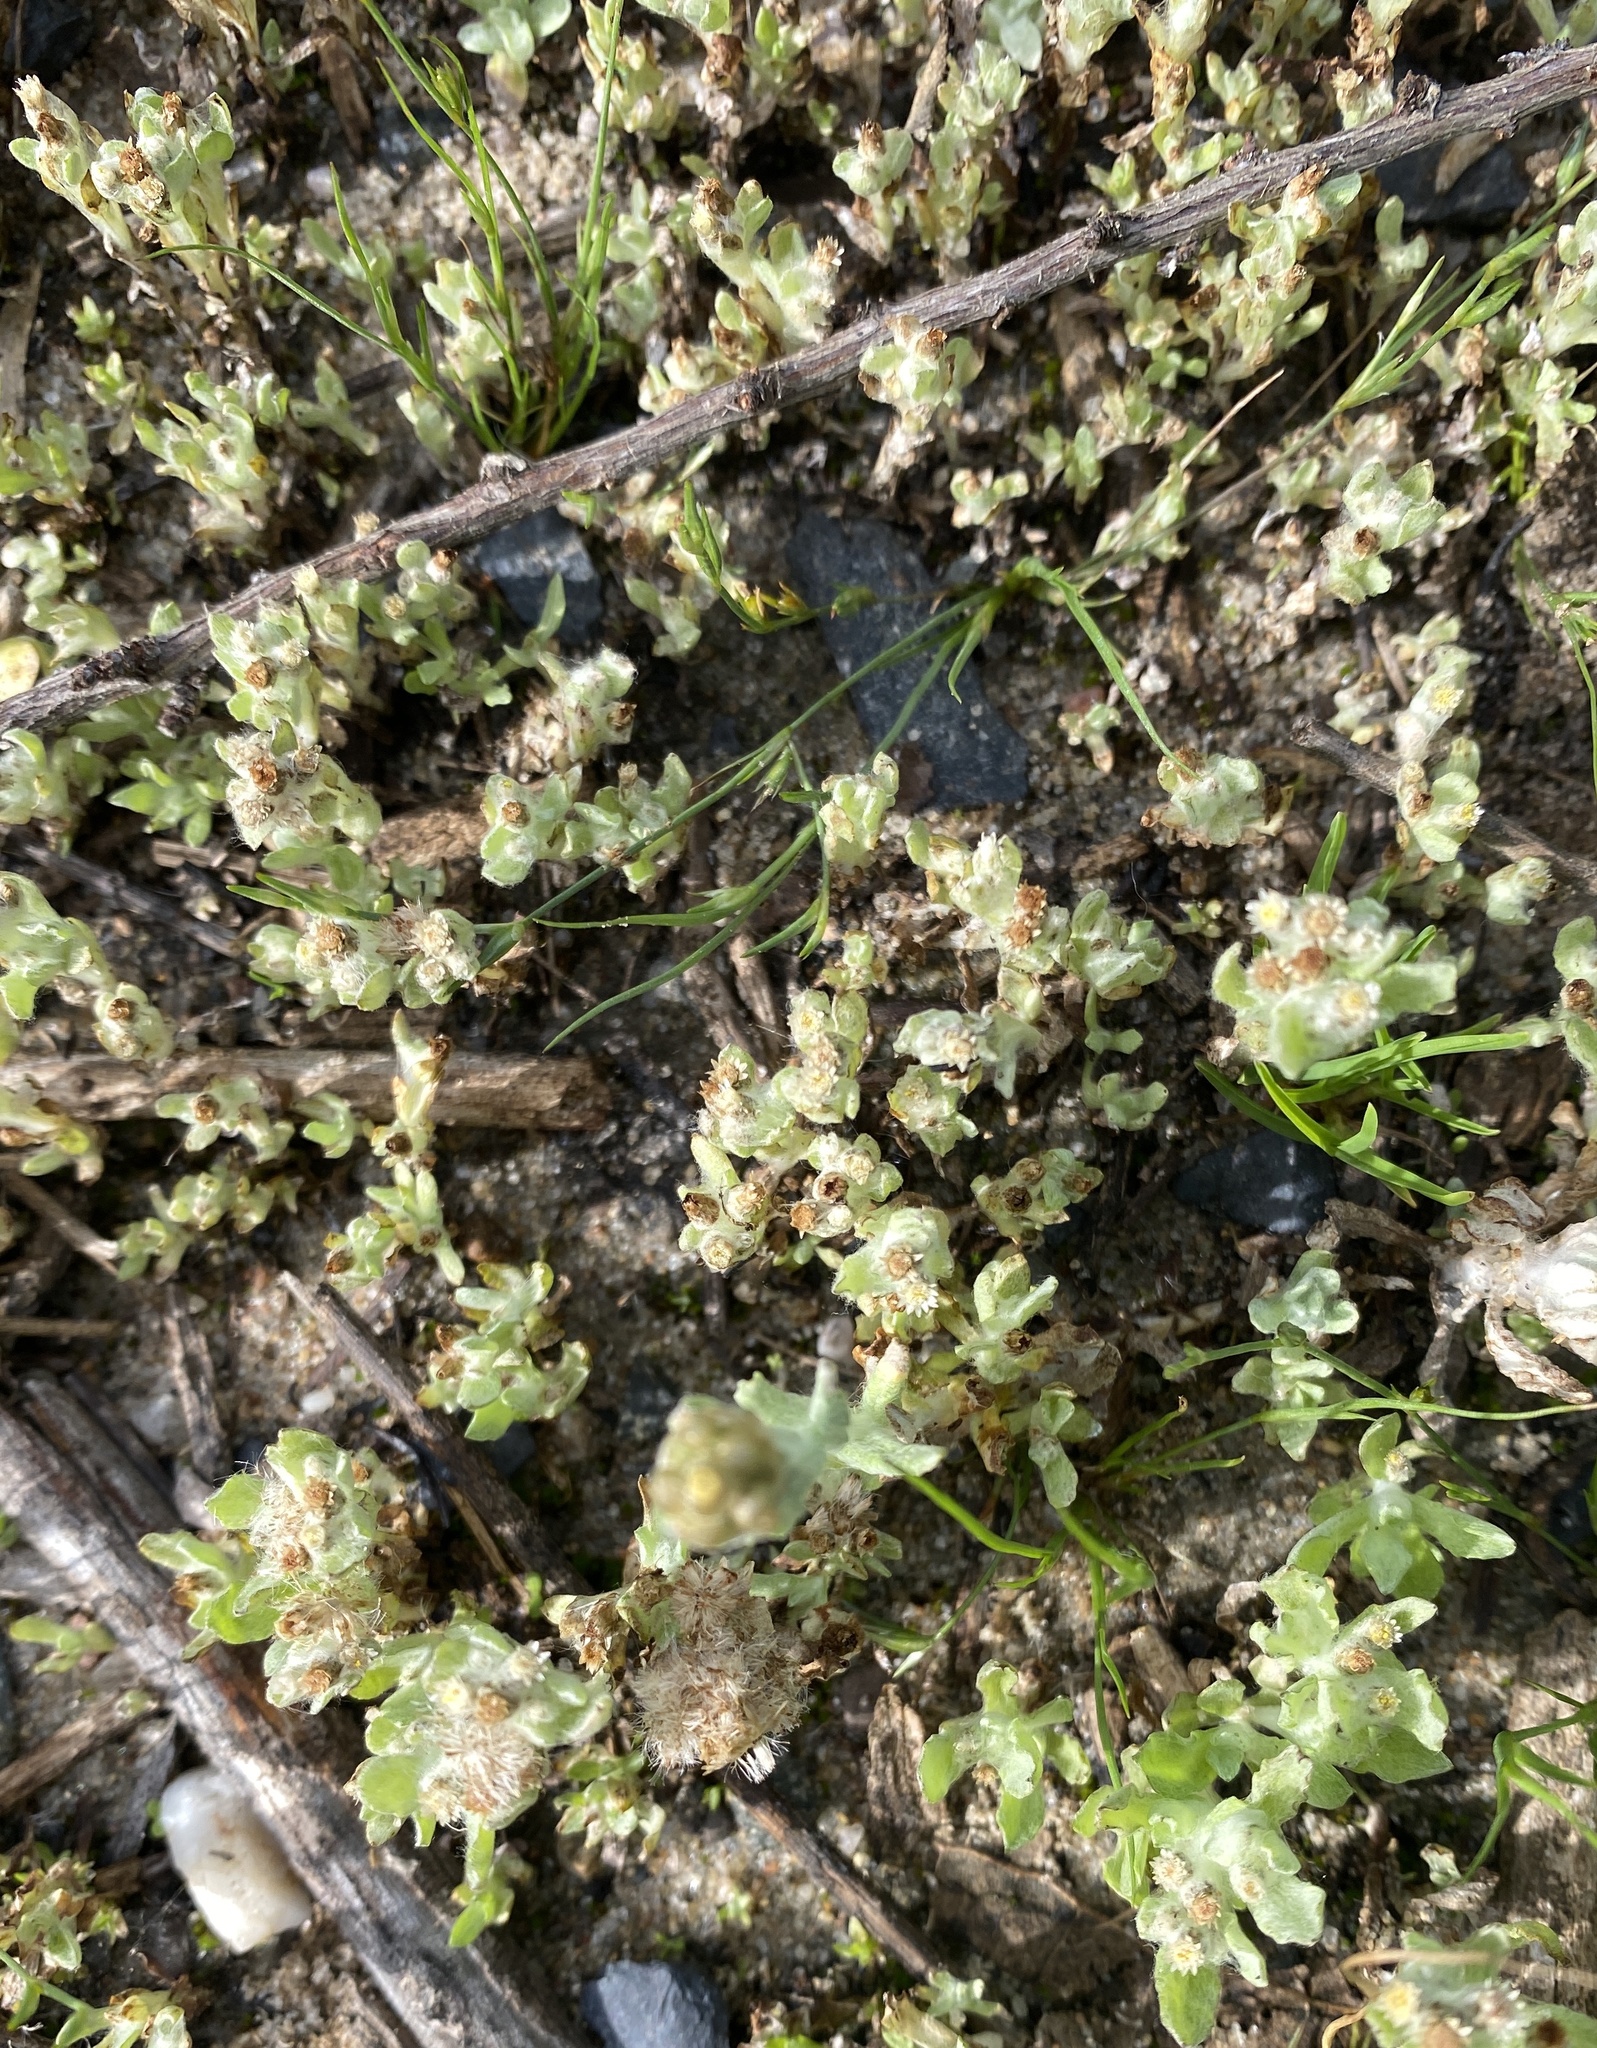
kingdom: Plantae
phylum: Tracheophyta
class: Magnoliopsida
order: Asterales
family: Asteraceae
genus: Gnaphalium
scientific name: Gnaphalium palustre
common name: Western marsh cudweed
